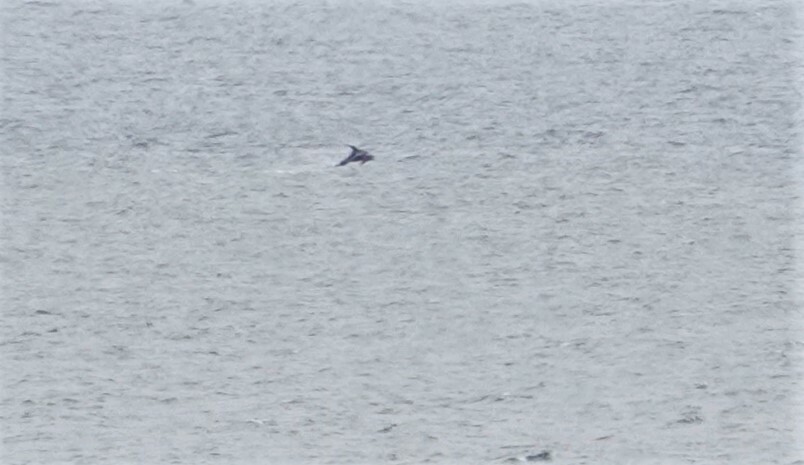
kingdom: Animalia
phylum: Chordata
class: Mammalia
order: Cetacea
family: Delphinidae
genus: Lagenorhynchus
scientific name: Lagenorhynchus acutus
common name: Atlantic white-sided dolphin
